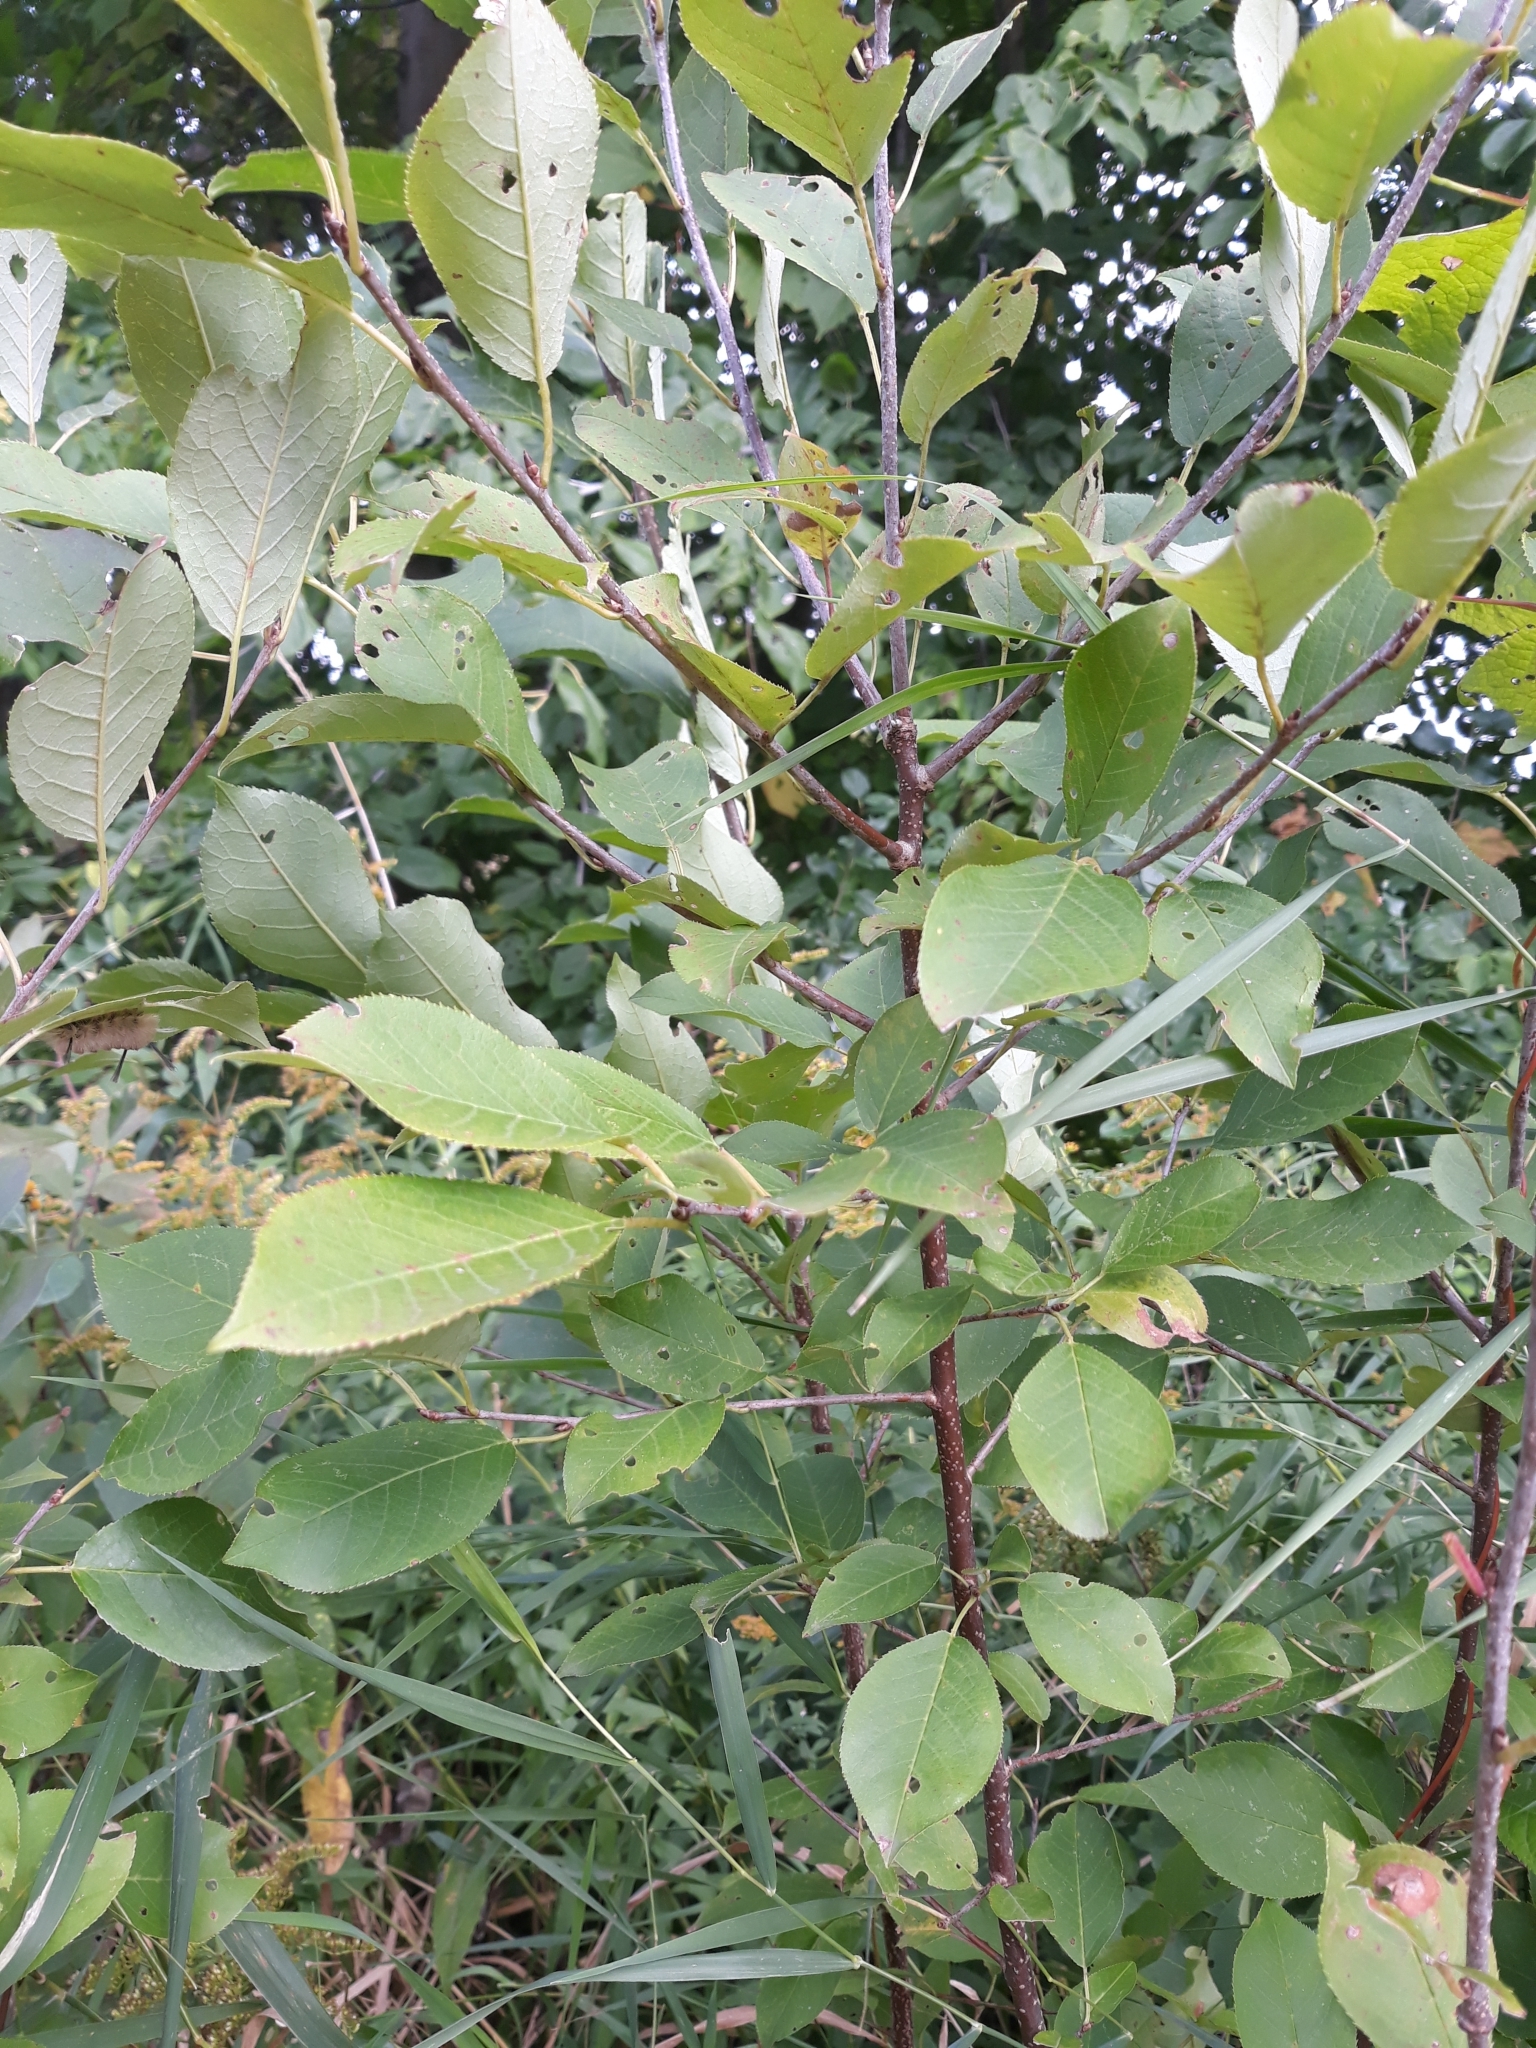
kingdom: Plantae
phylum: Tracheophyta
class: Magnoliopsida
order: Rosales
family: Rosaceae
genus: Prunus
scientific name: Prunus virginiana
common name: Chokecherry
